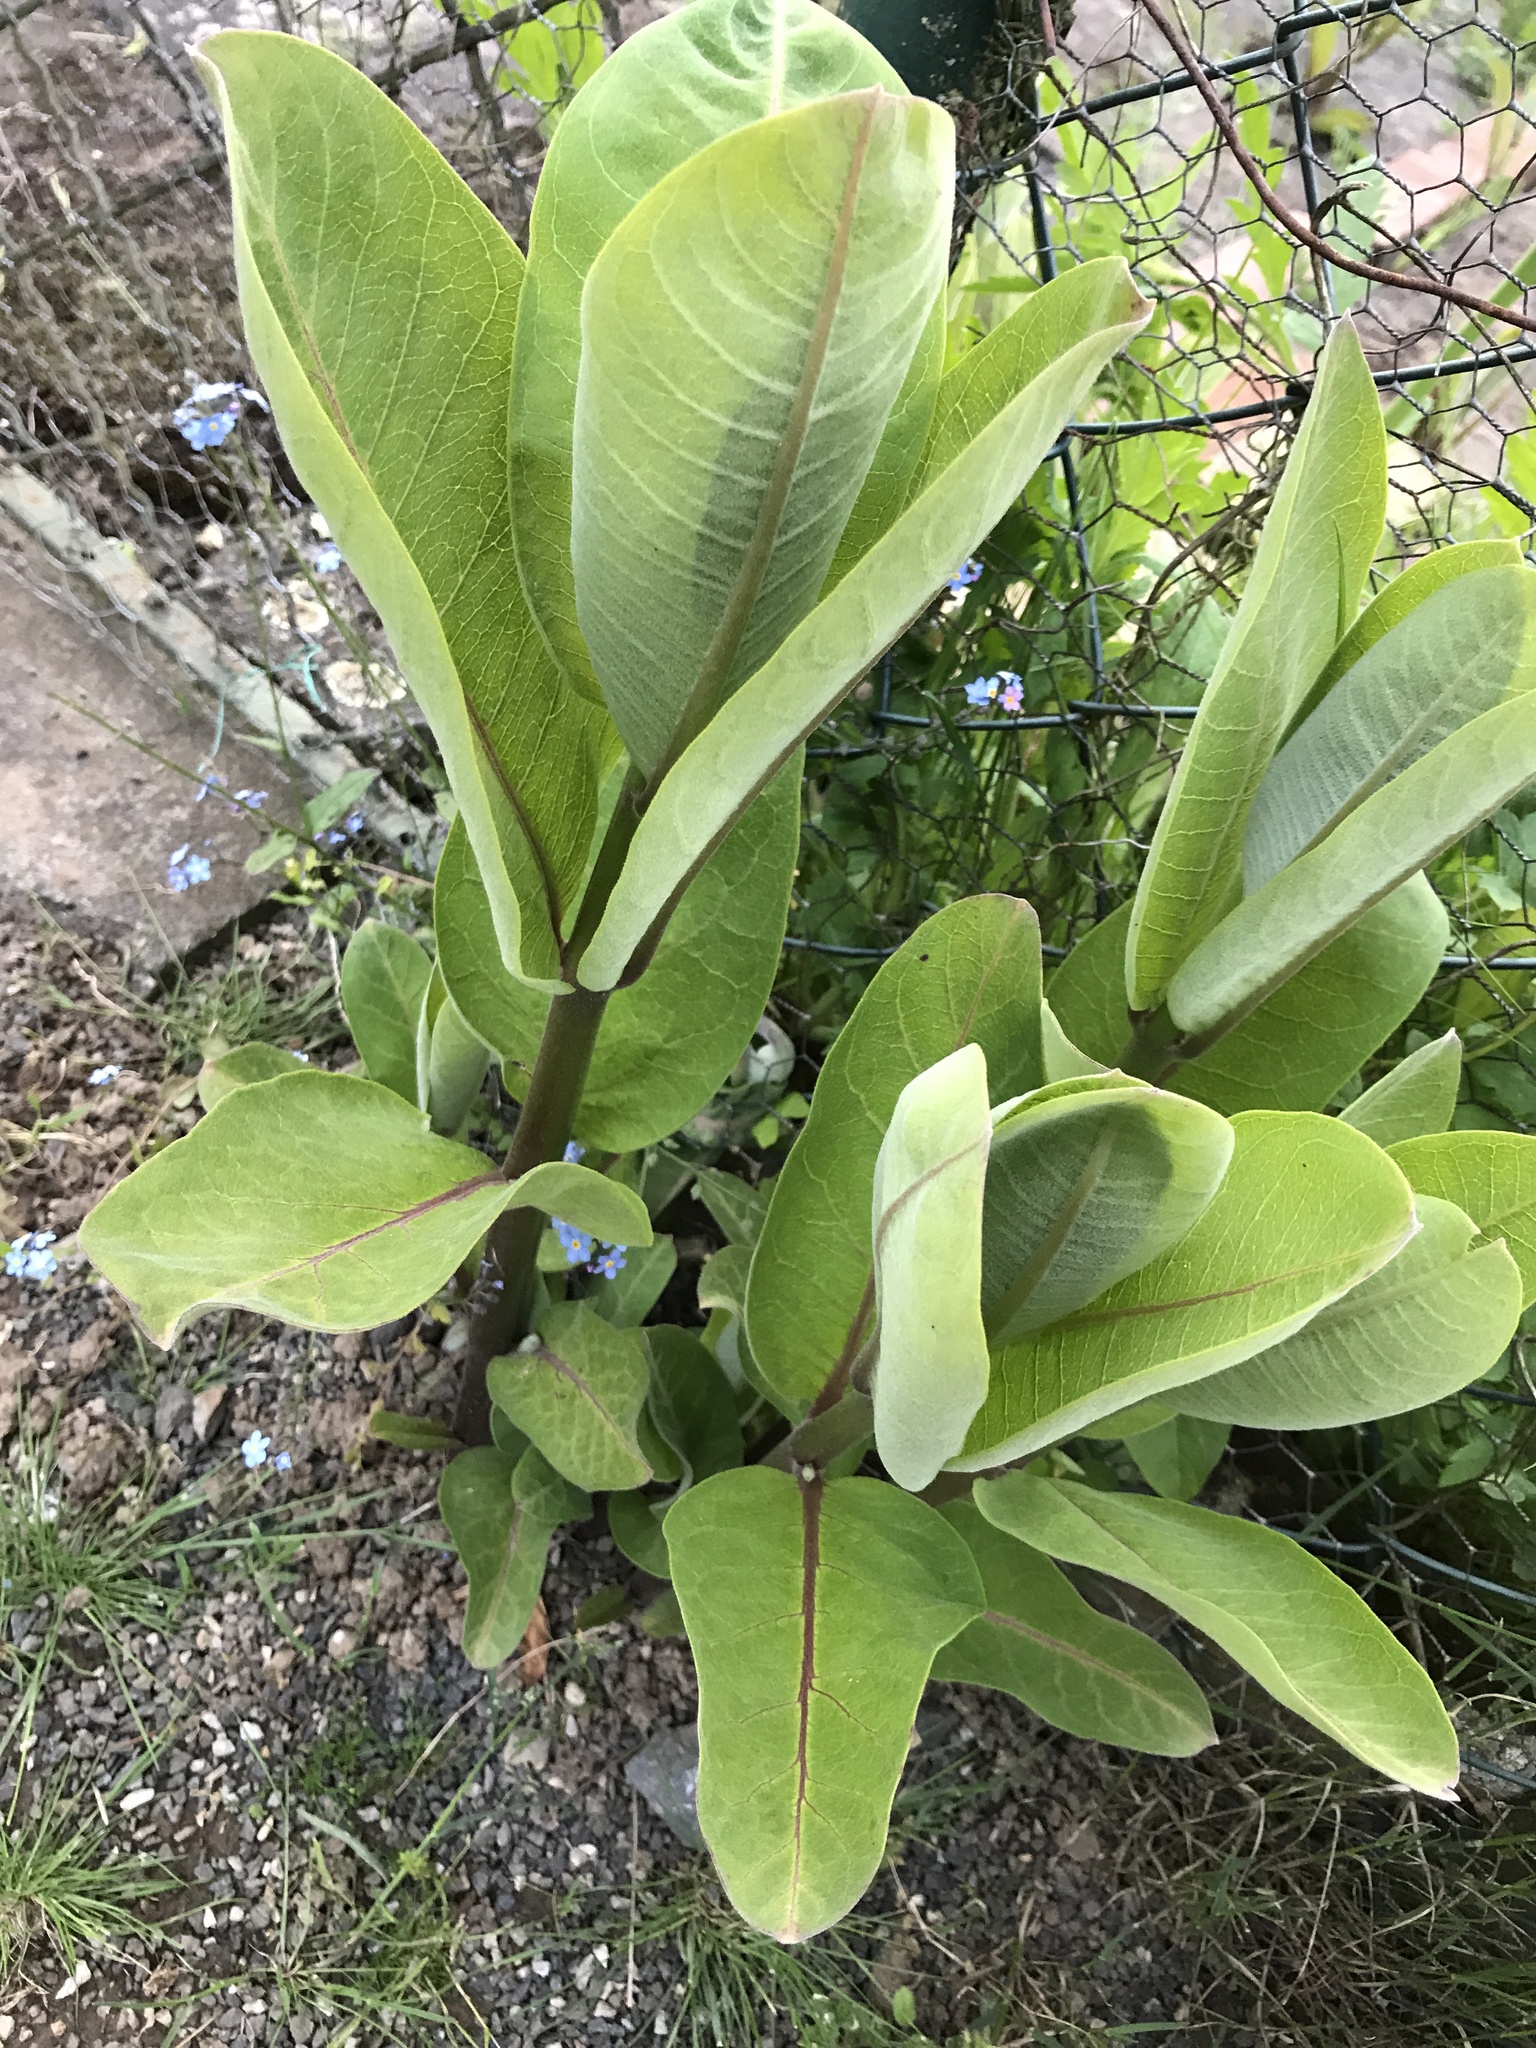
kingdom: Plantae
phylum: Tracheophyta
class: Magnoliopsida
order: Gentianales
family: Apocynaceae
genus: Asclepias
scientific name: Asclepias syriaca
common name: Common milkweed
